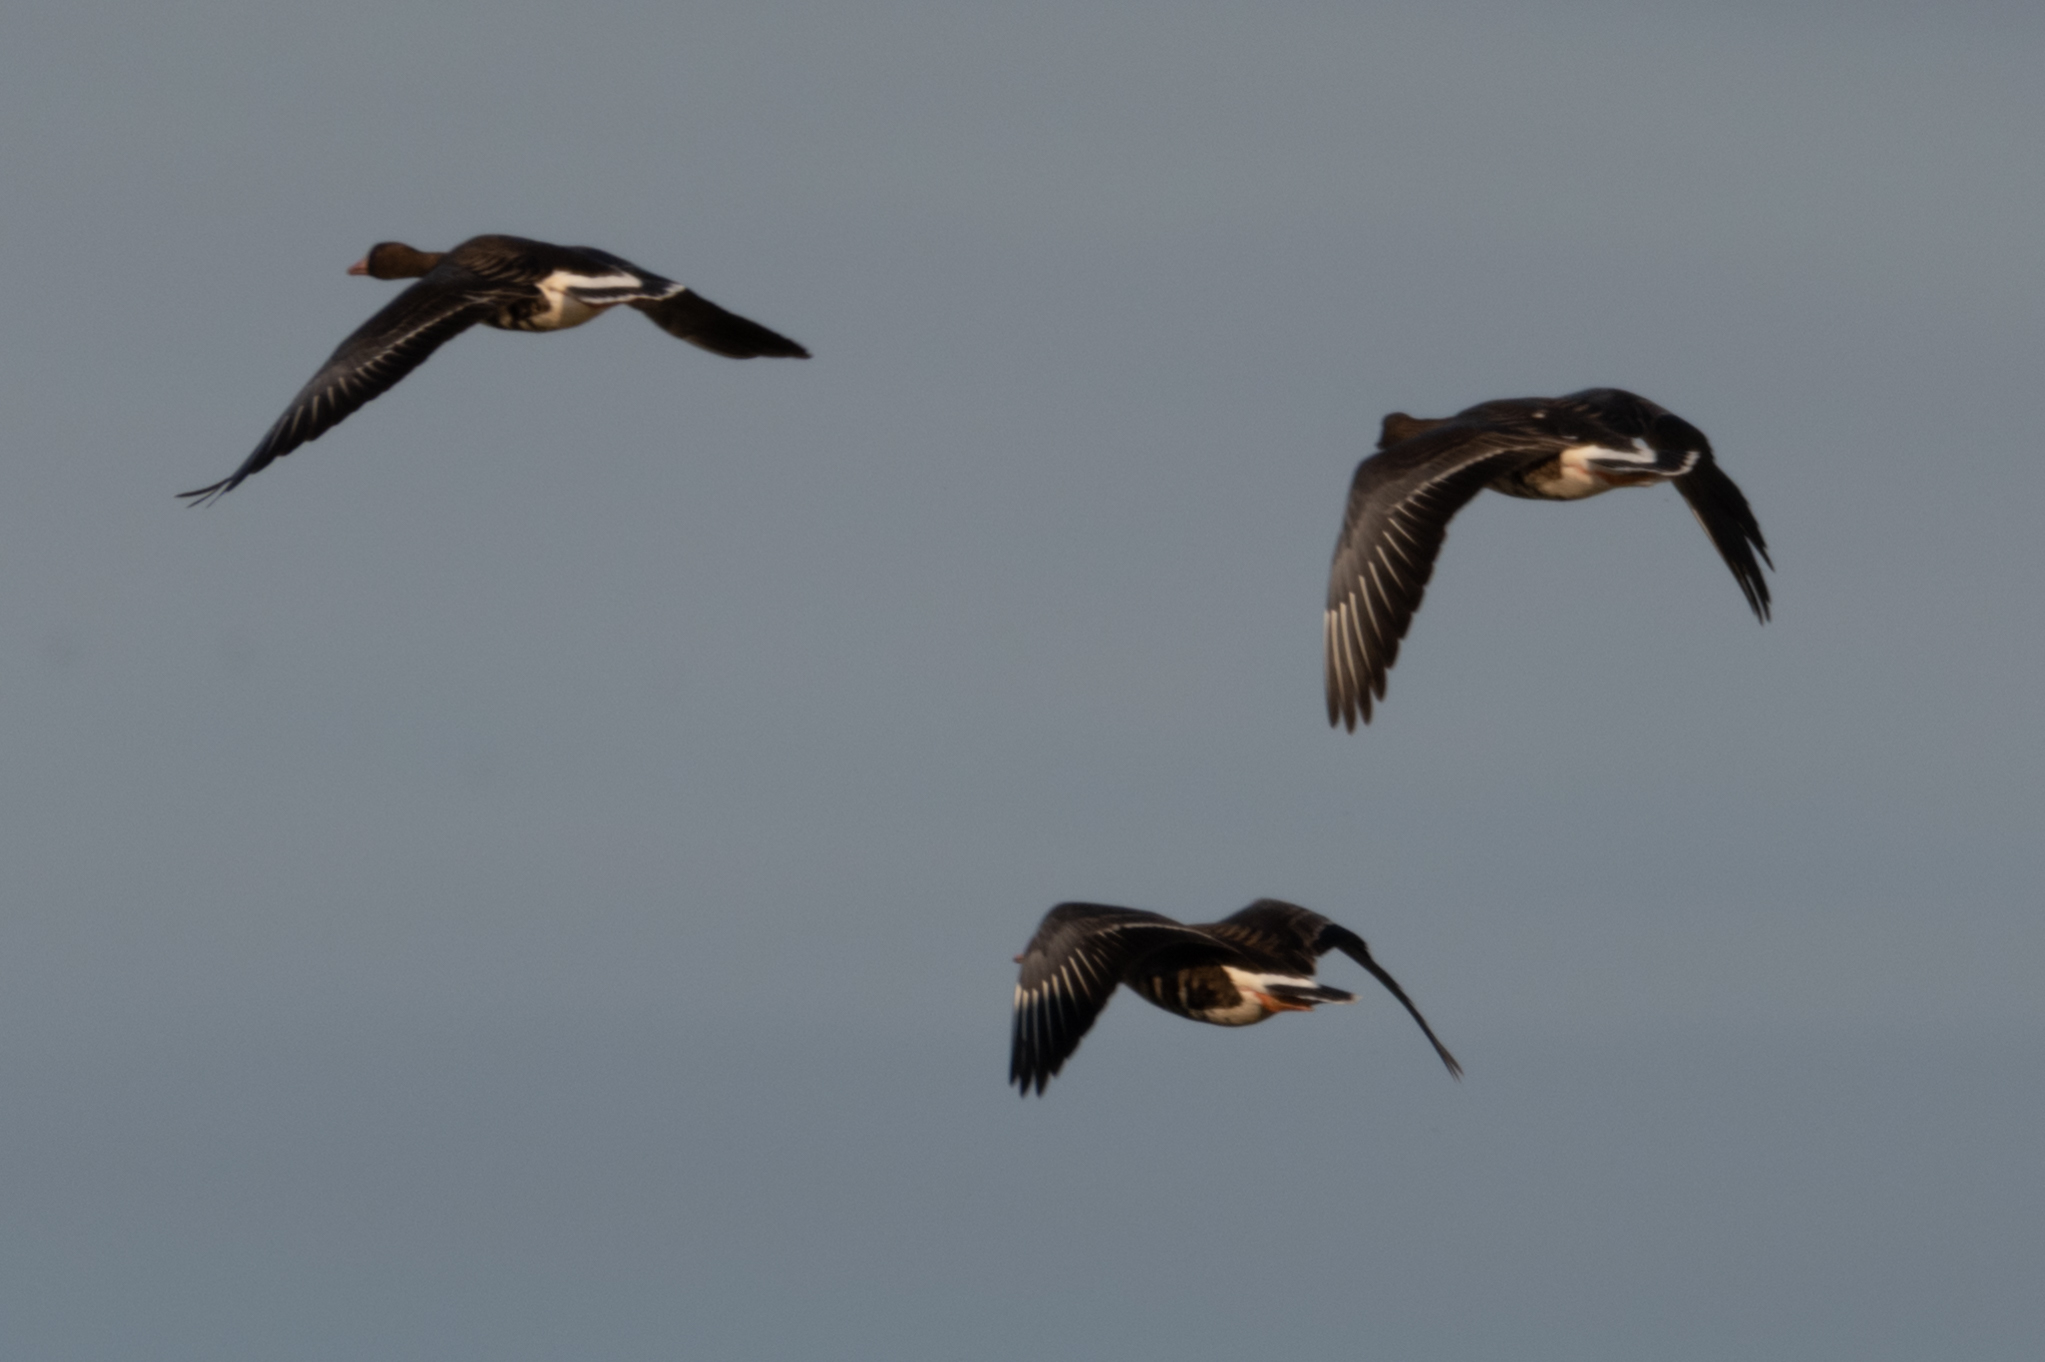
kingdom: Animalia
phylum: Chordata
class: Aves
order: Anseriformes
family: Anatidae
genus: Anser
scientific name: Anser albifrons
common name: Greater white-fronted goose
